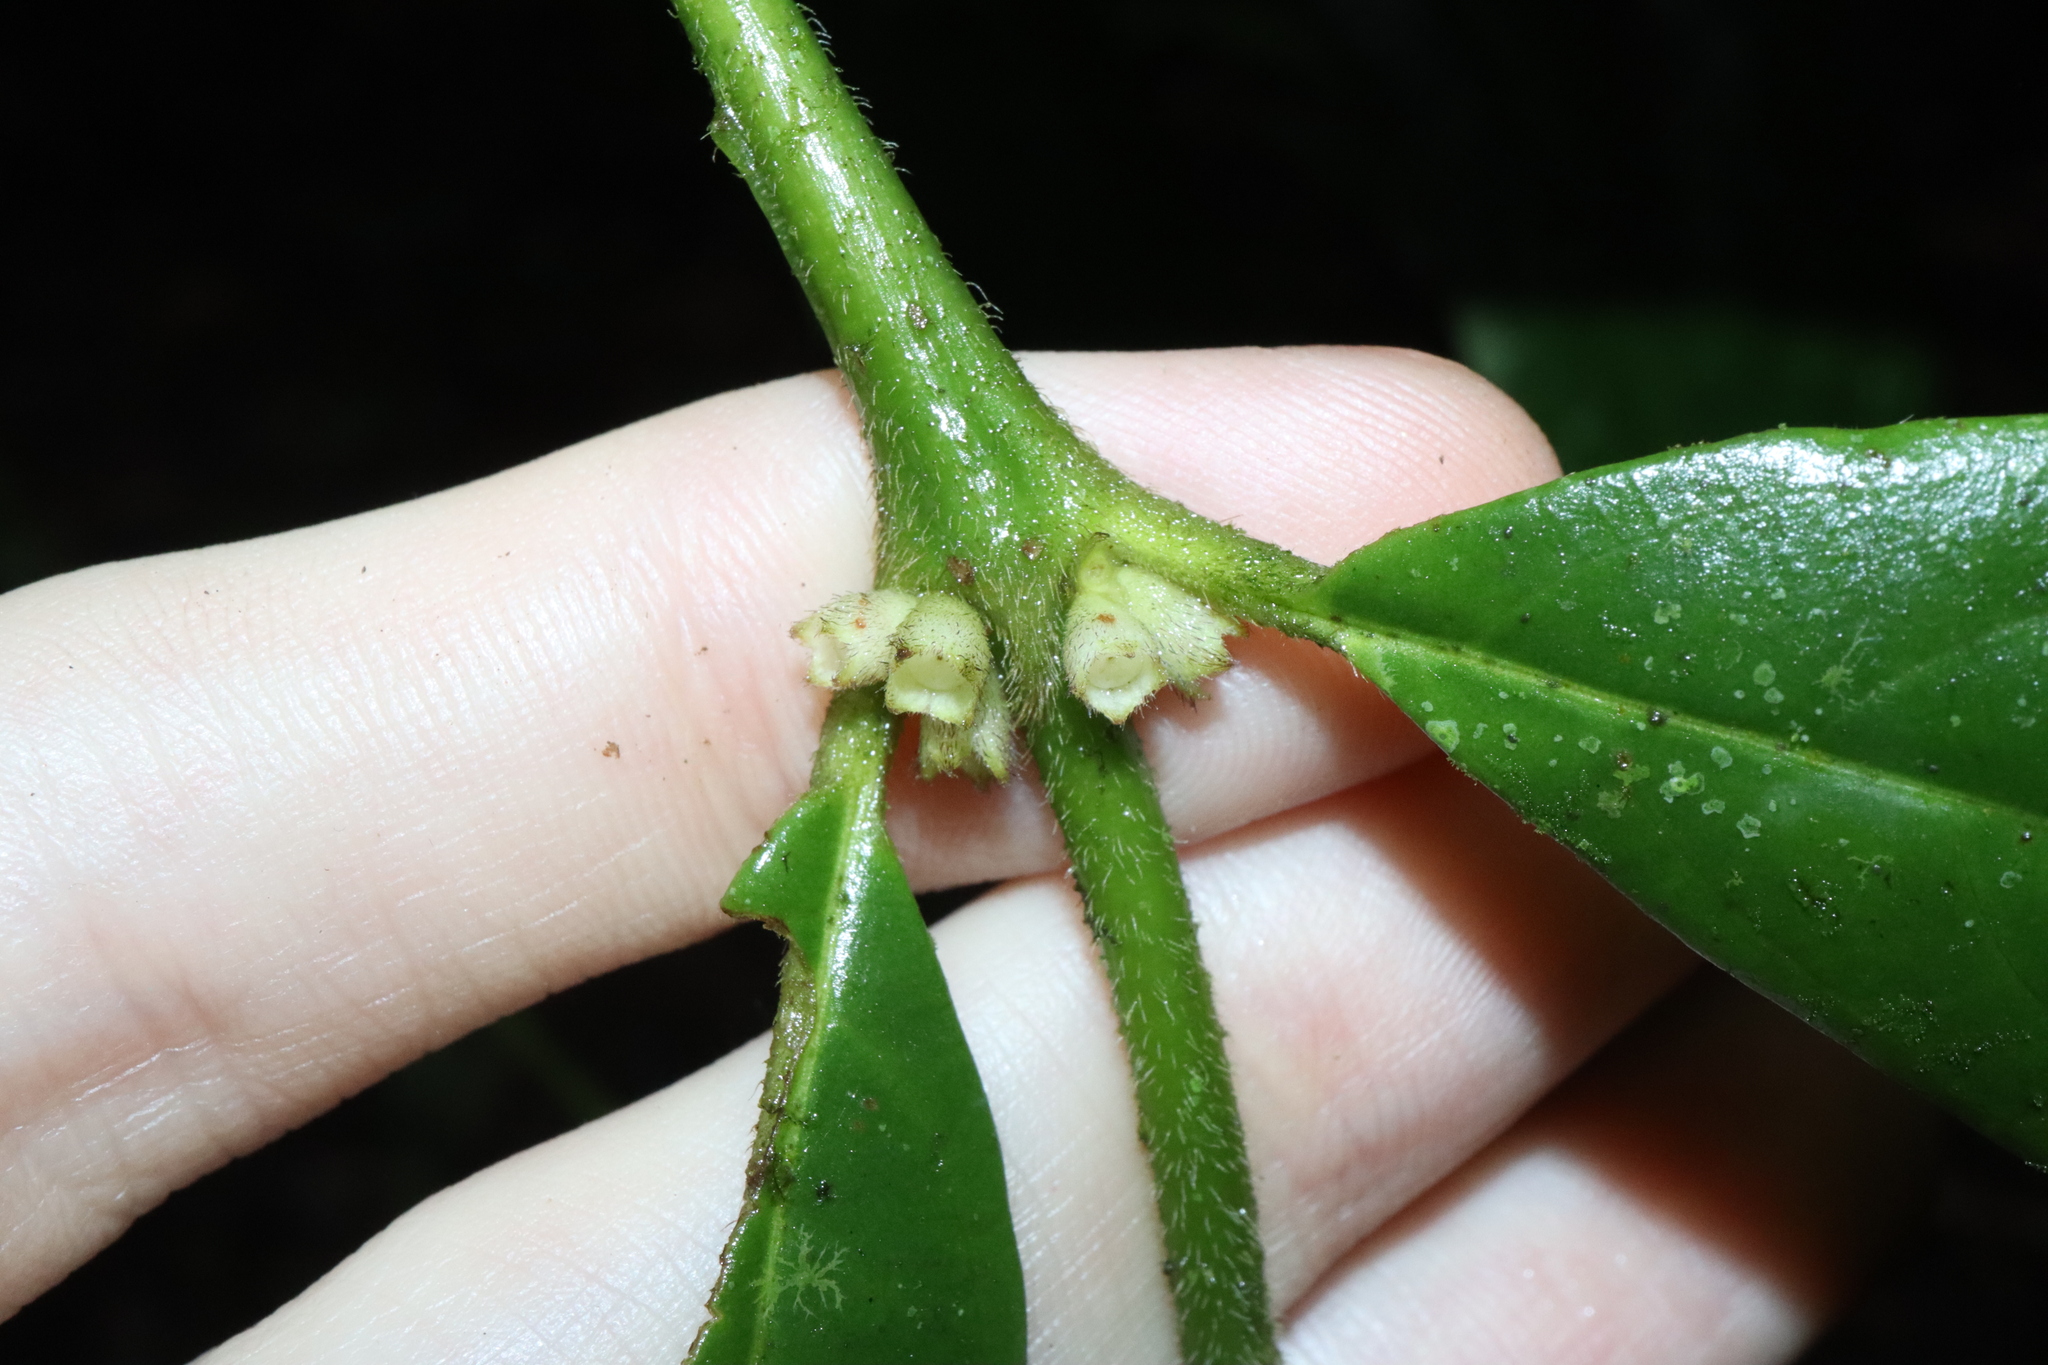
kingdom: Plantae
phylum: Tracheophyta
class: Magnoliopsida
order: Gentianales
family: Rubiaceae
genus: Lasianthus
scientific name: Lasianthus chlorocarpus
